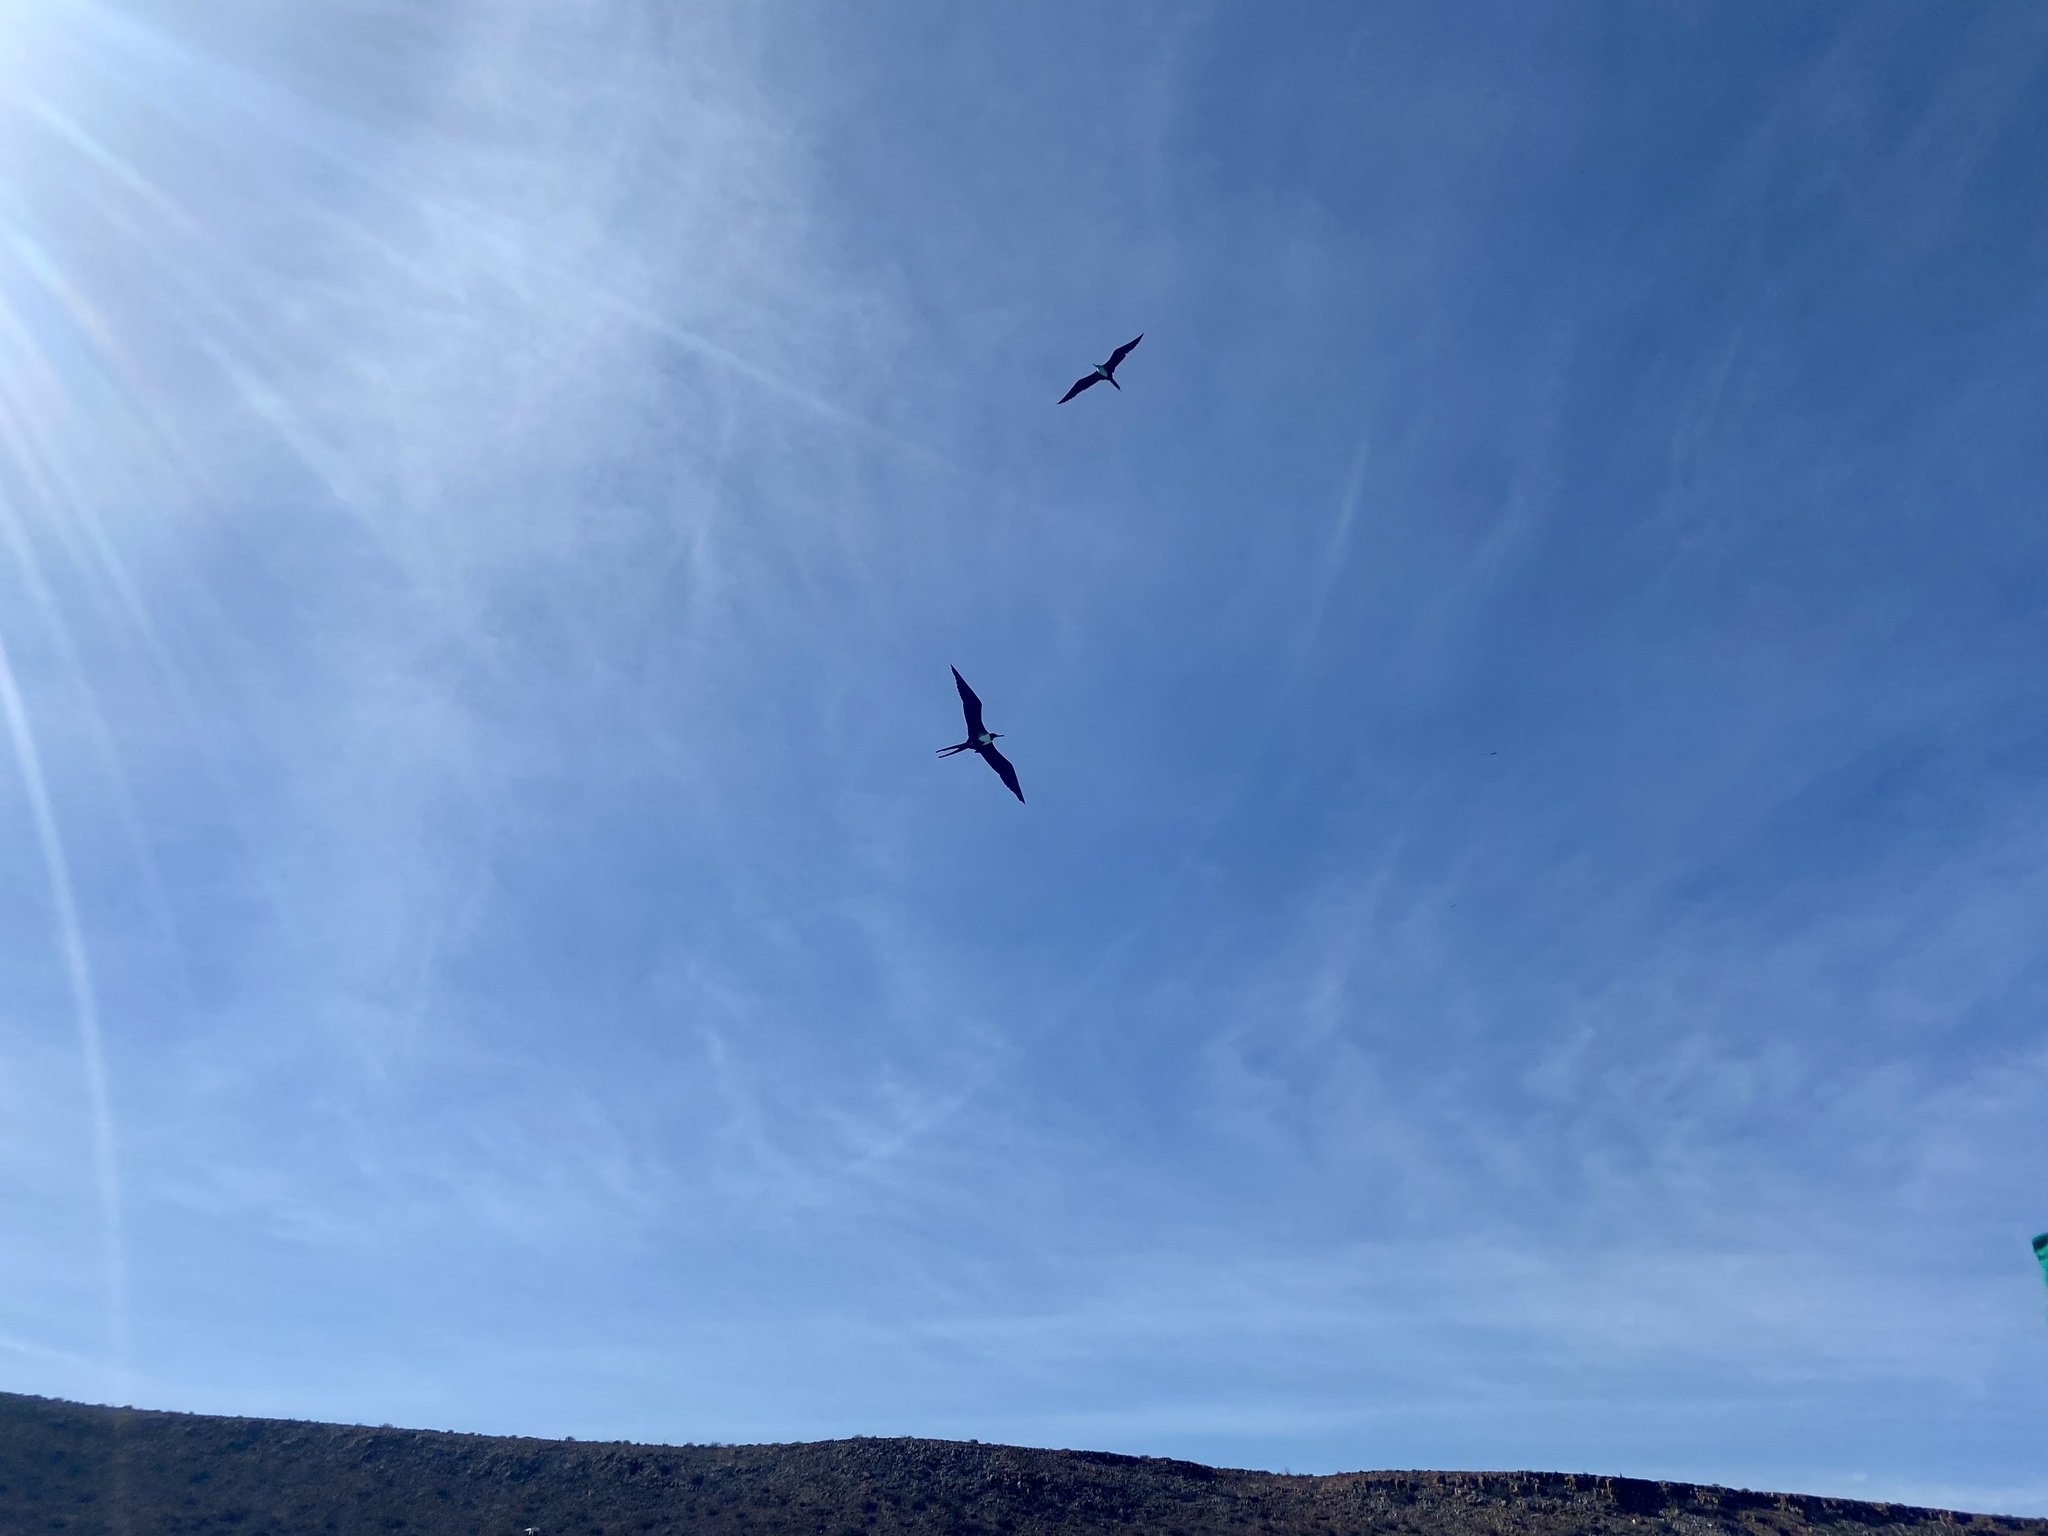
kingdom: Animalia
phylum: Chordata
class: Aves
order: Suliformes
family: Fregatidae
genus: Fregata
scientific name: Fregata magnificens
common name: Magnificent frigatebird
